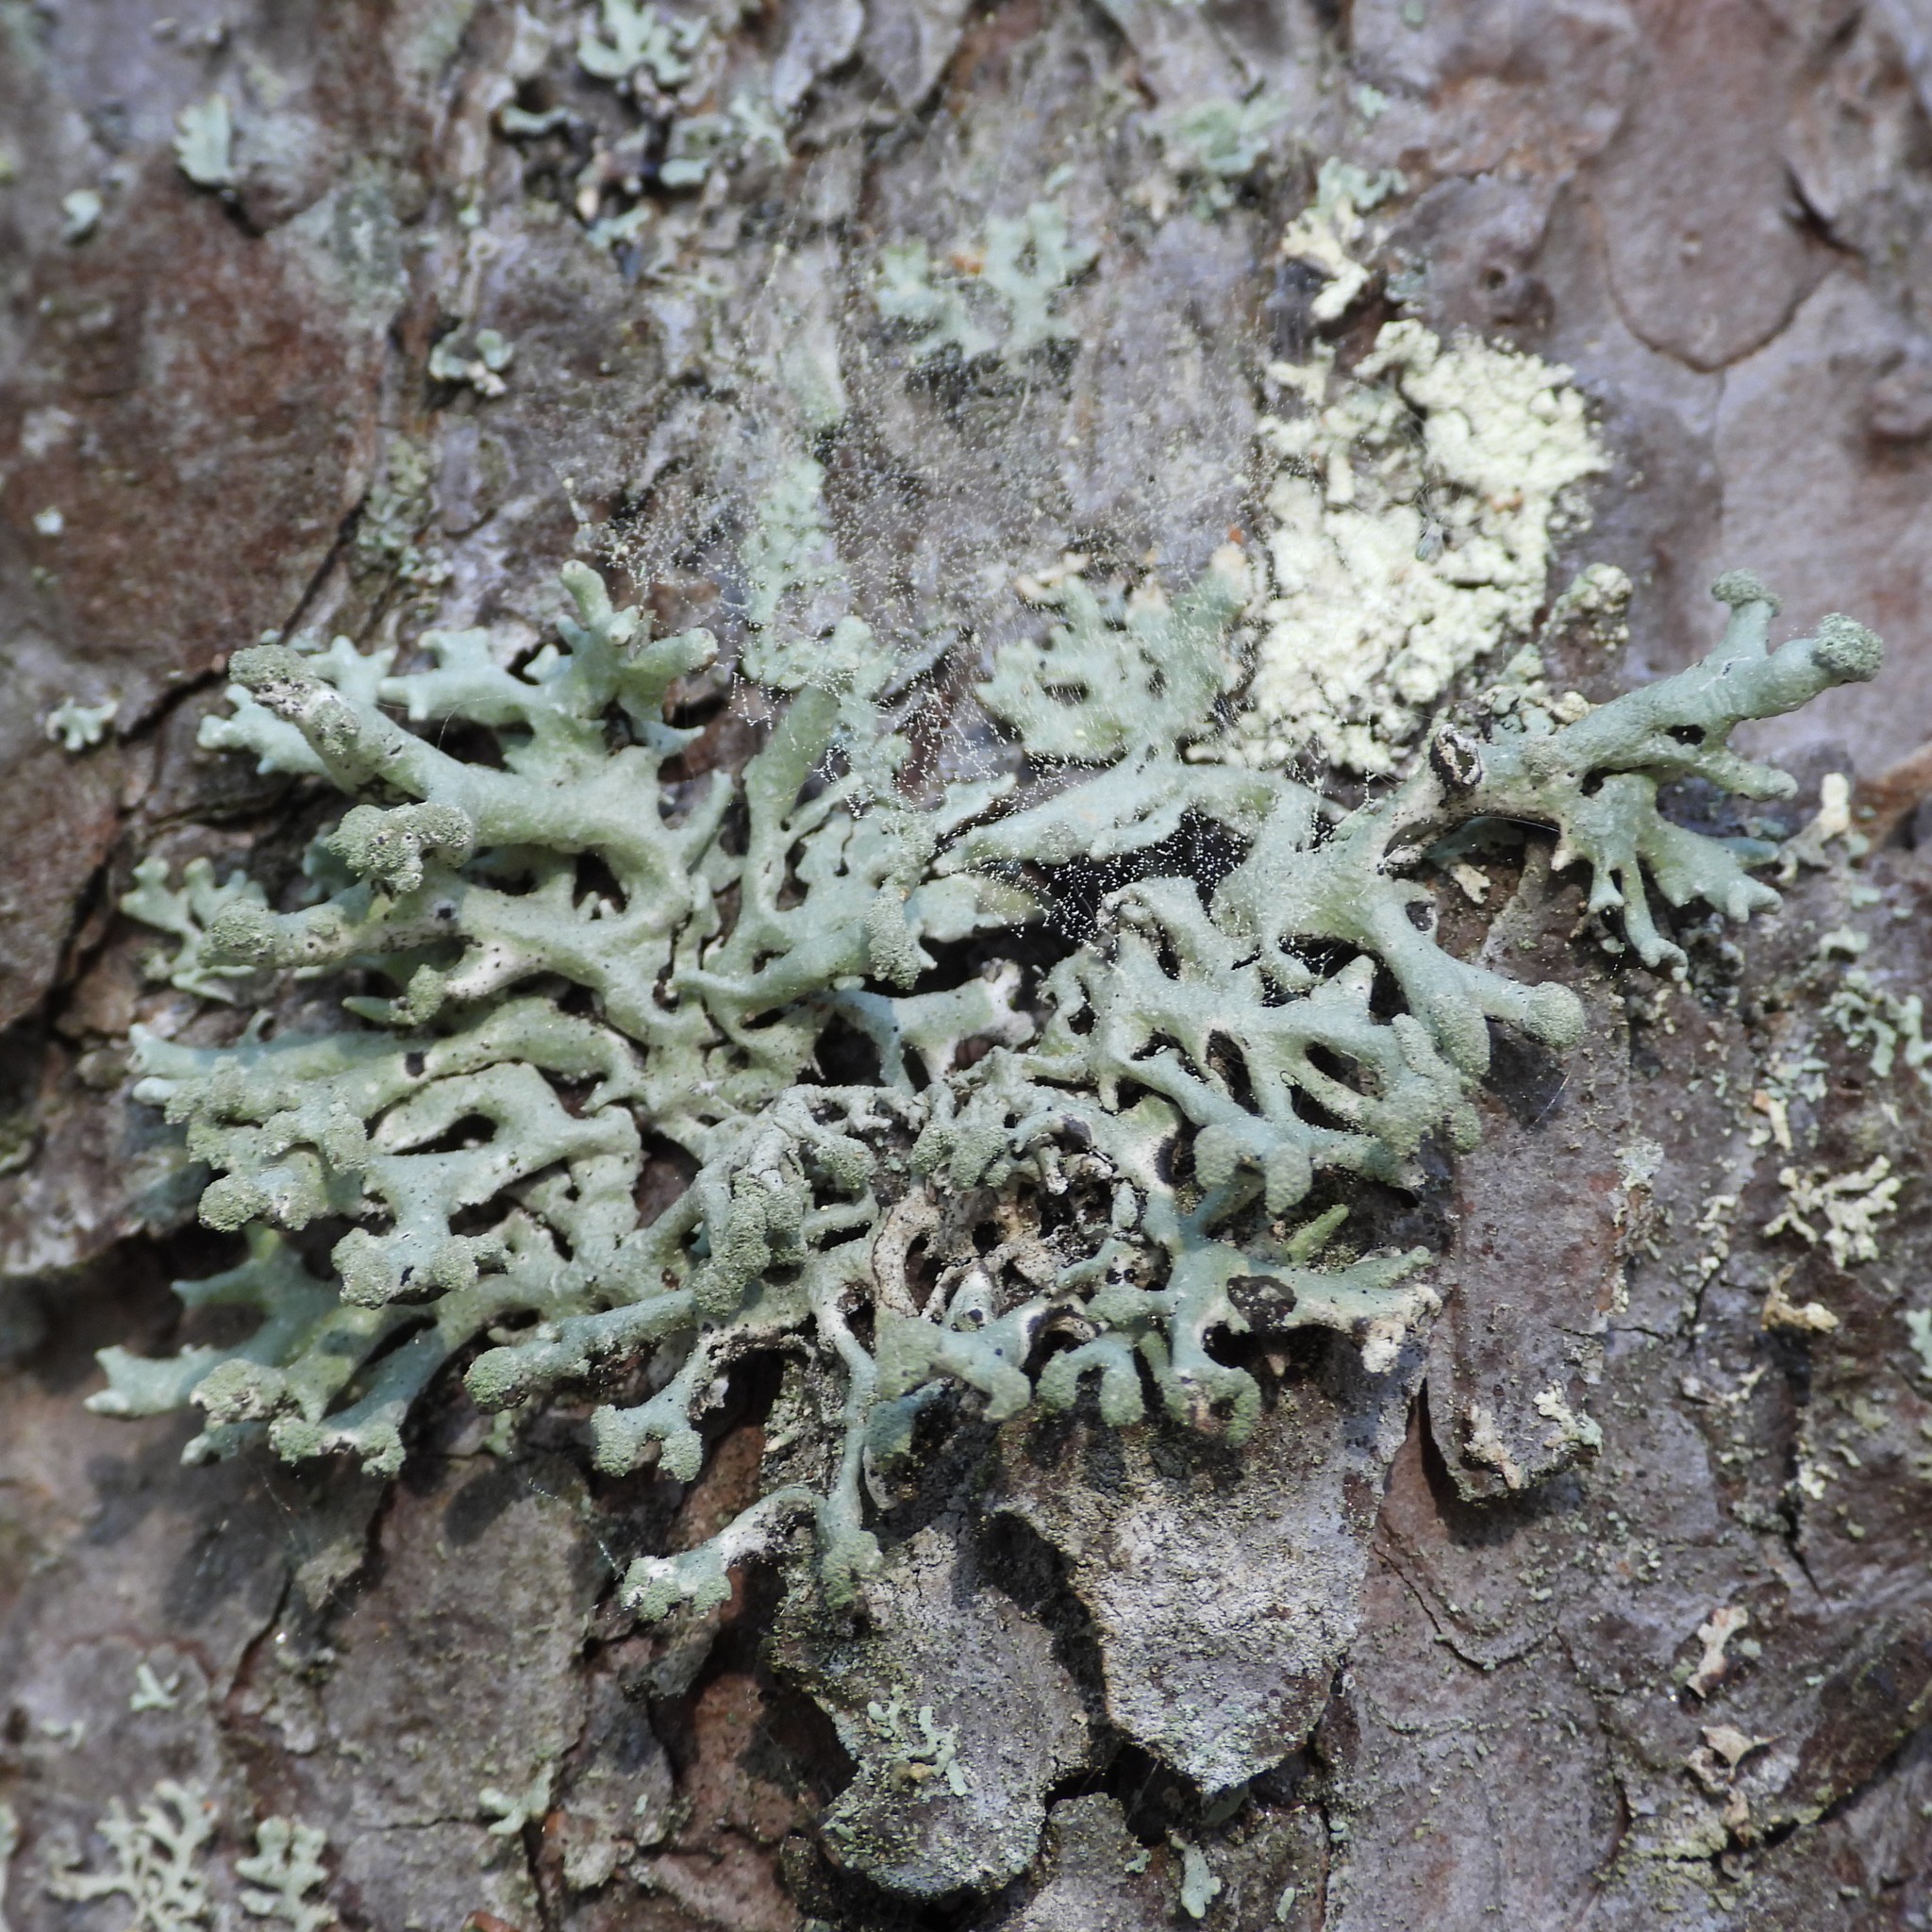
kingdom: Fungi
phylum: Ascomycota
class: Lecanoromycetes
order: Lecanorales
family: Parmeliaceae
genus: Hypogymnia
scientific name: Hypogymnia tubulosa
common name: Powder-headed tube lichen
